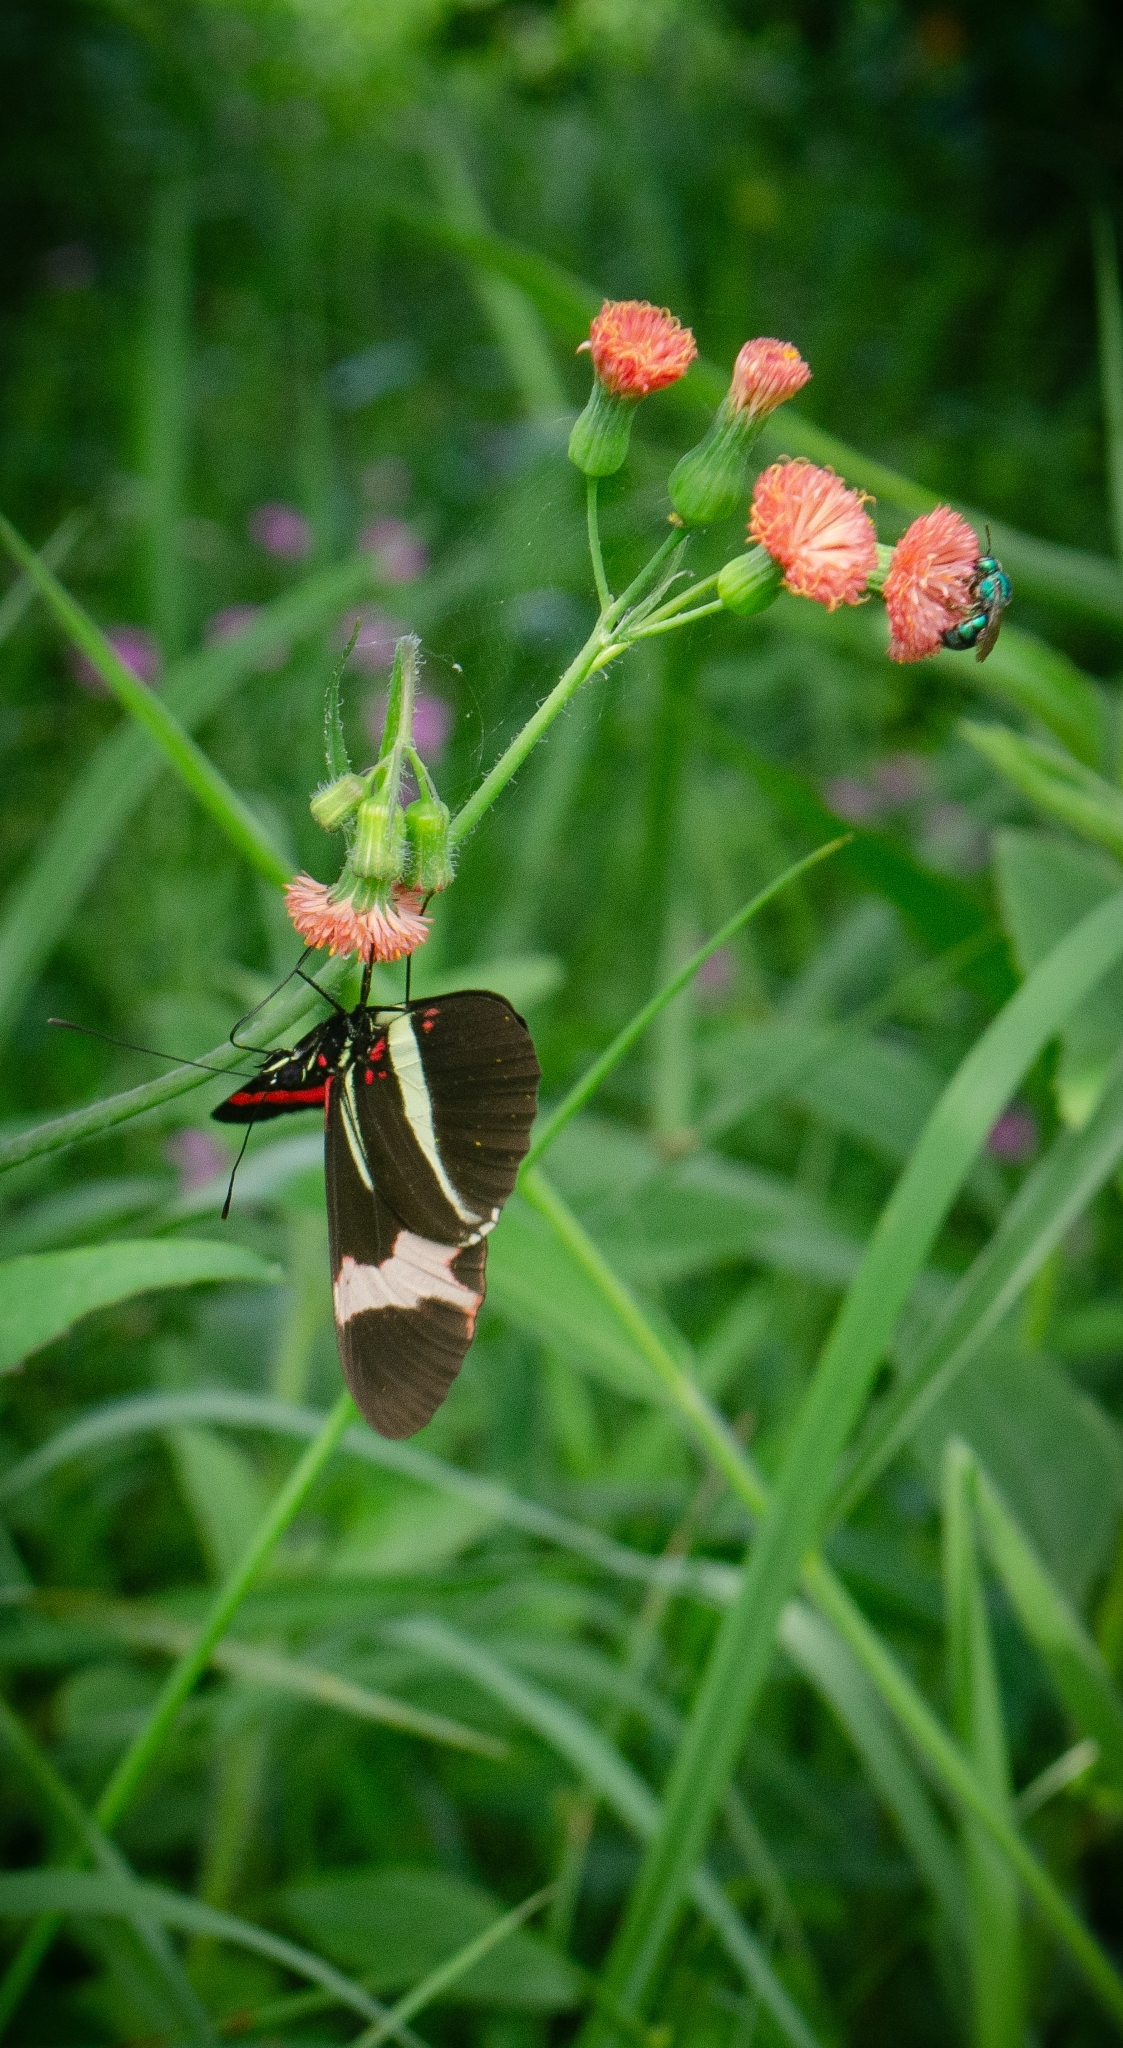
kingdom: Animalia
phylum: Arthropoda
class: Insecta
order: Lepidoptera
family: Nymphalidae
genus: Heliconius
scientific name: Heliconius erato
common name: Common patch longwing
